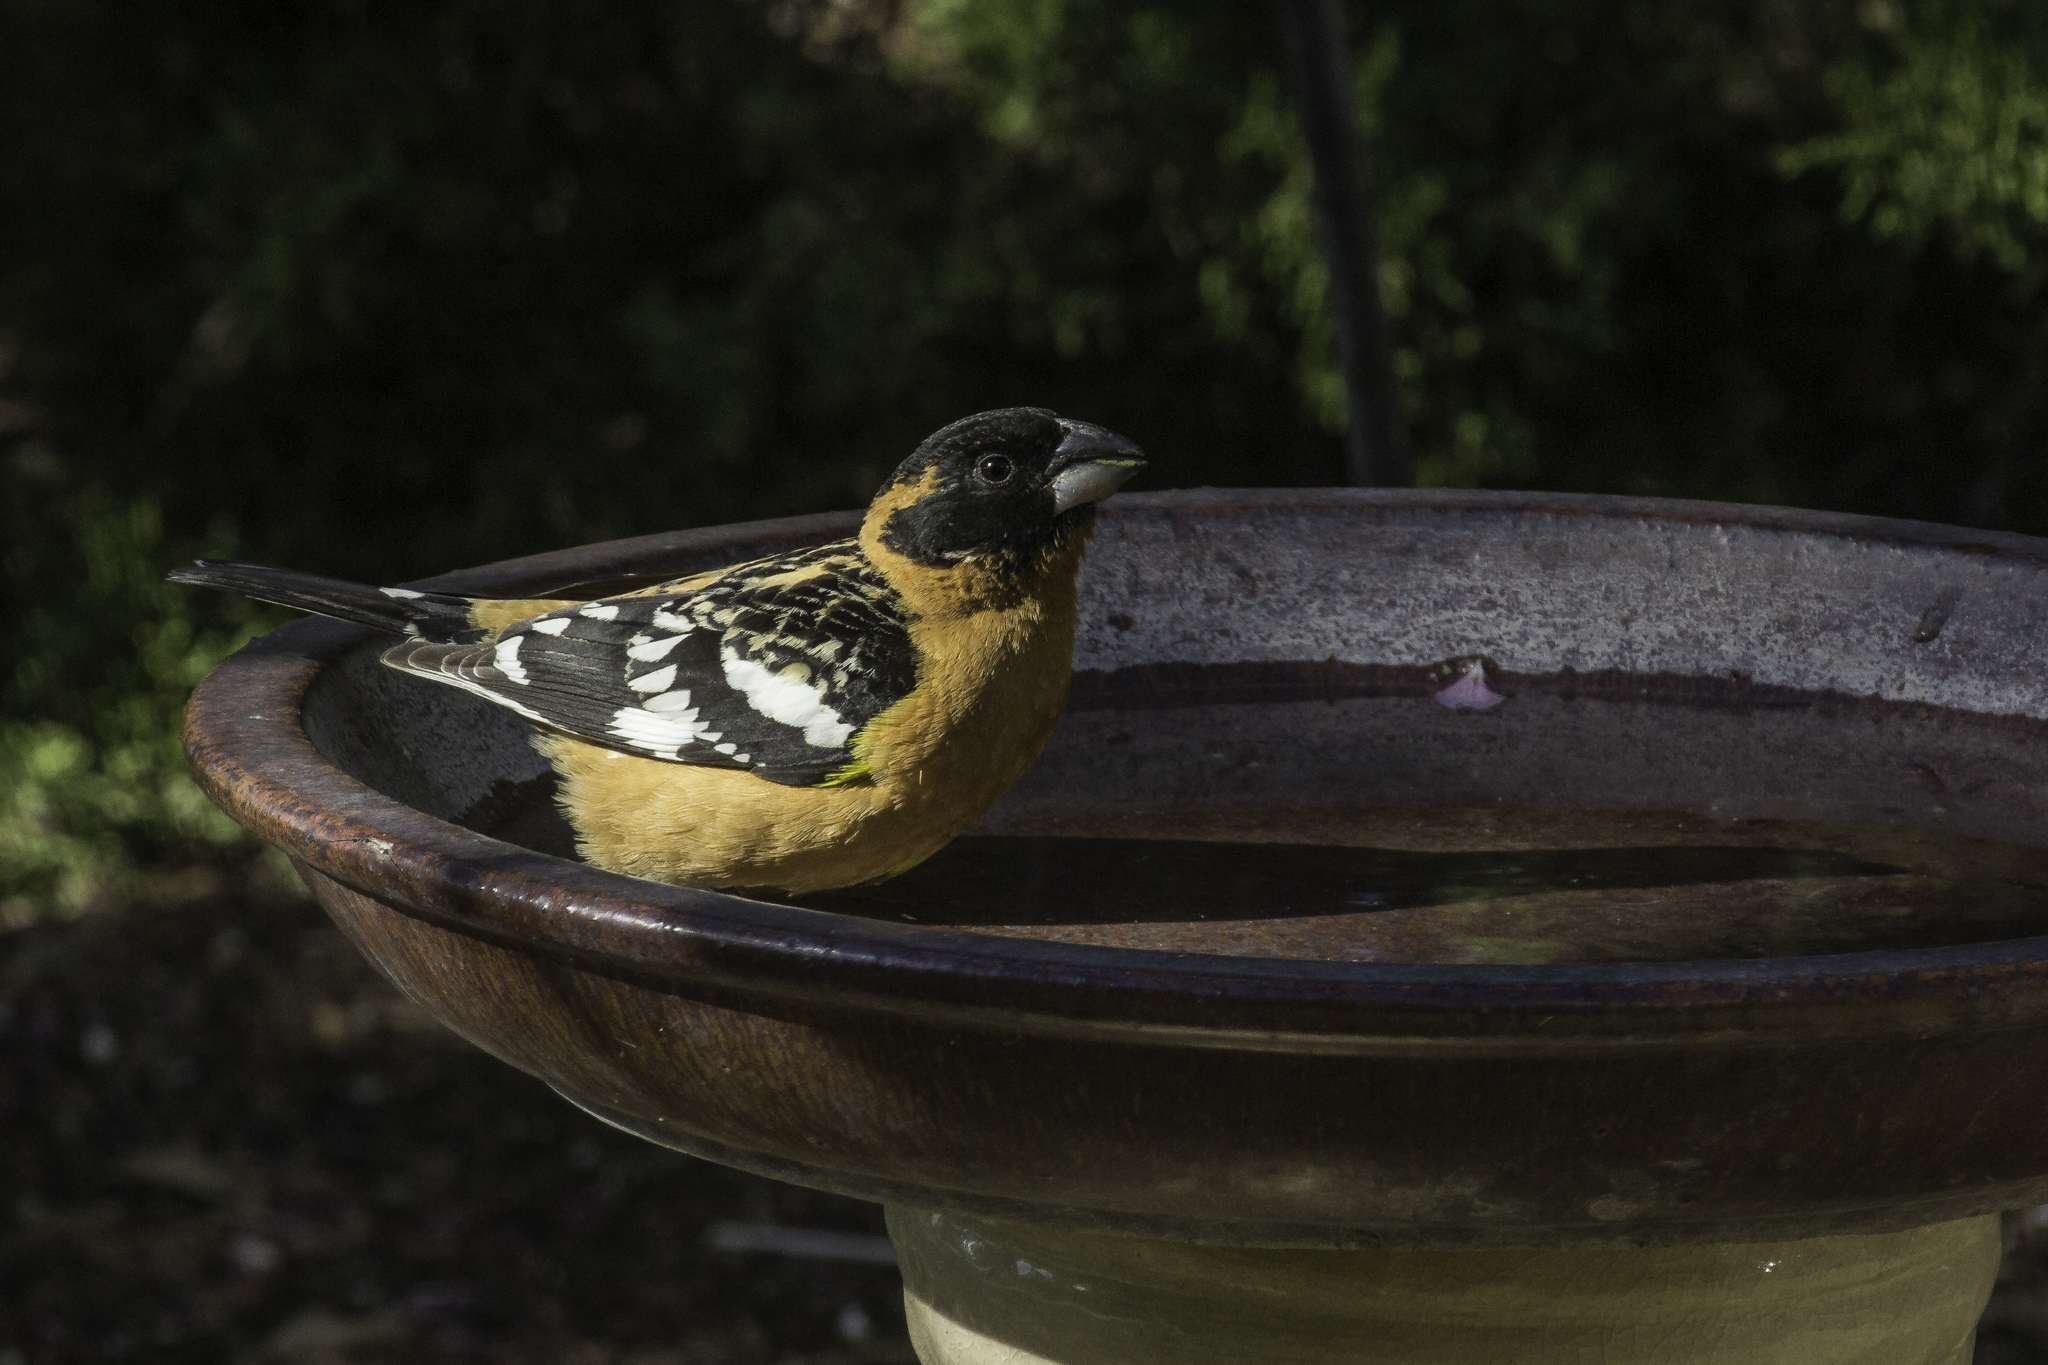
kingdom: Animalia
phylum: Chordata
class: Aves
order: Passeriformes
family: Cardinalidae
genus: Pheucticus
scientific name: Pheucticus melanocephalus
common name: Black-headed grosbeak
